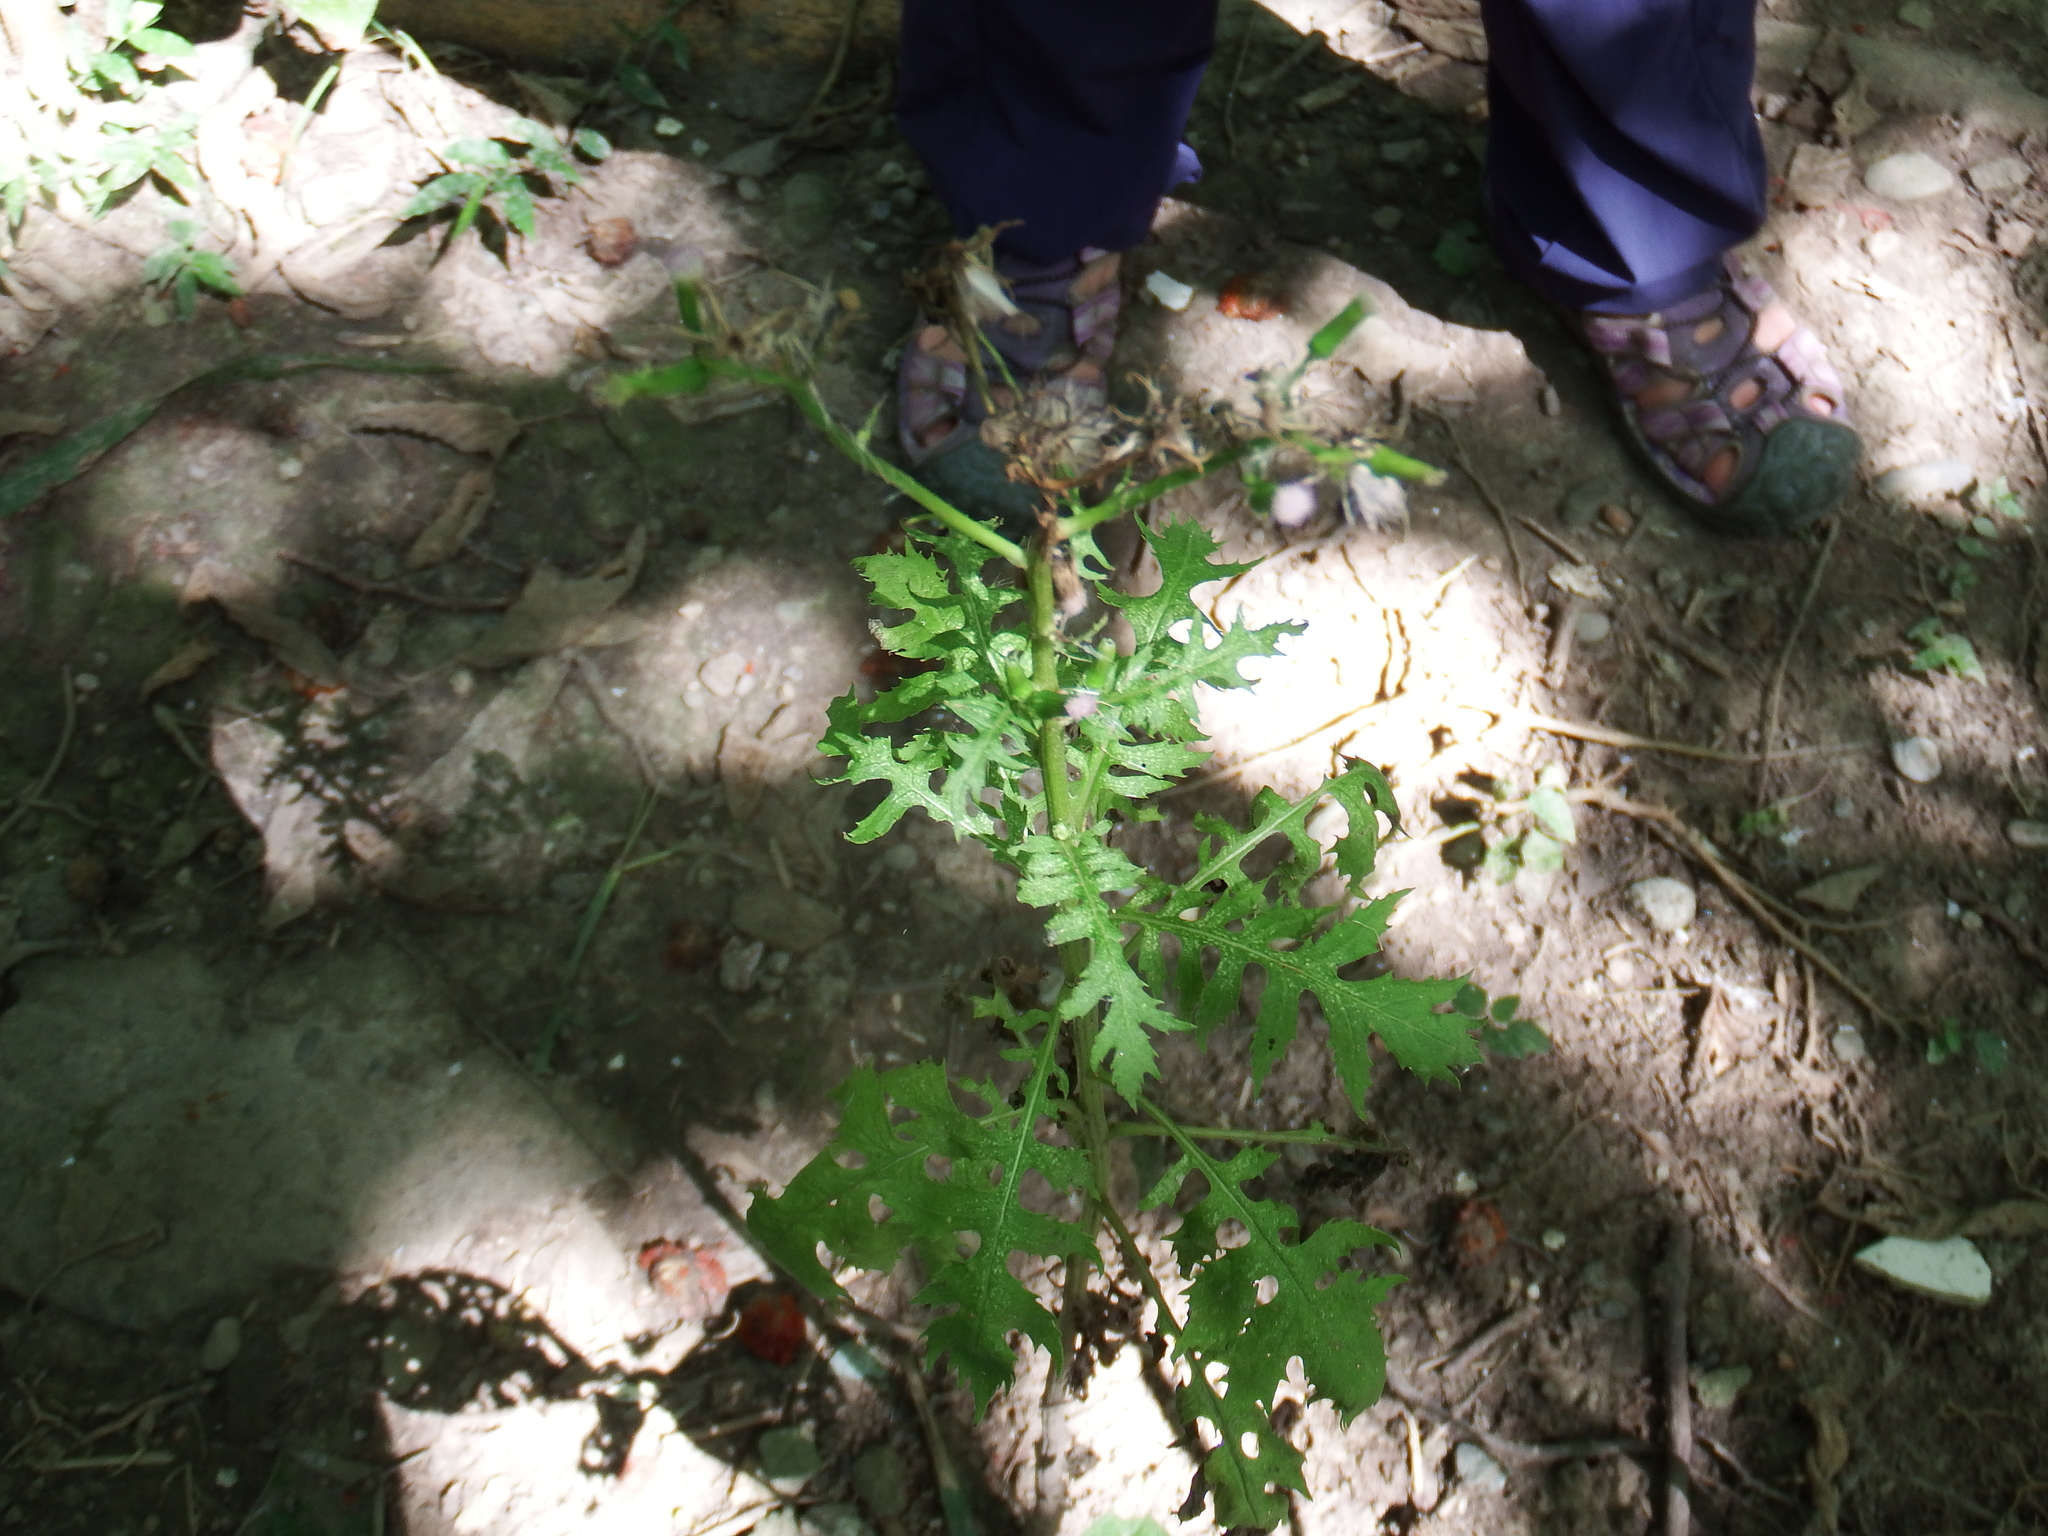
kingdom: Plantae
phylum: Tracheophyta
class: Magnoliopsida
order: Asterales
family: Asteraceae
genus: Erechtites
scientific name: Erechtites valerianifolius
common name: Tropical burnweed
